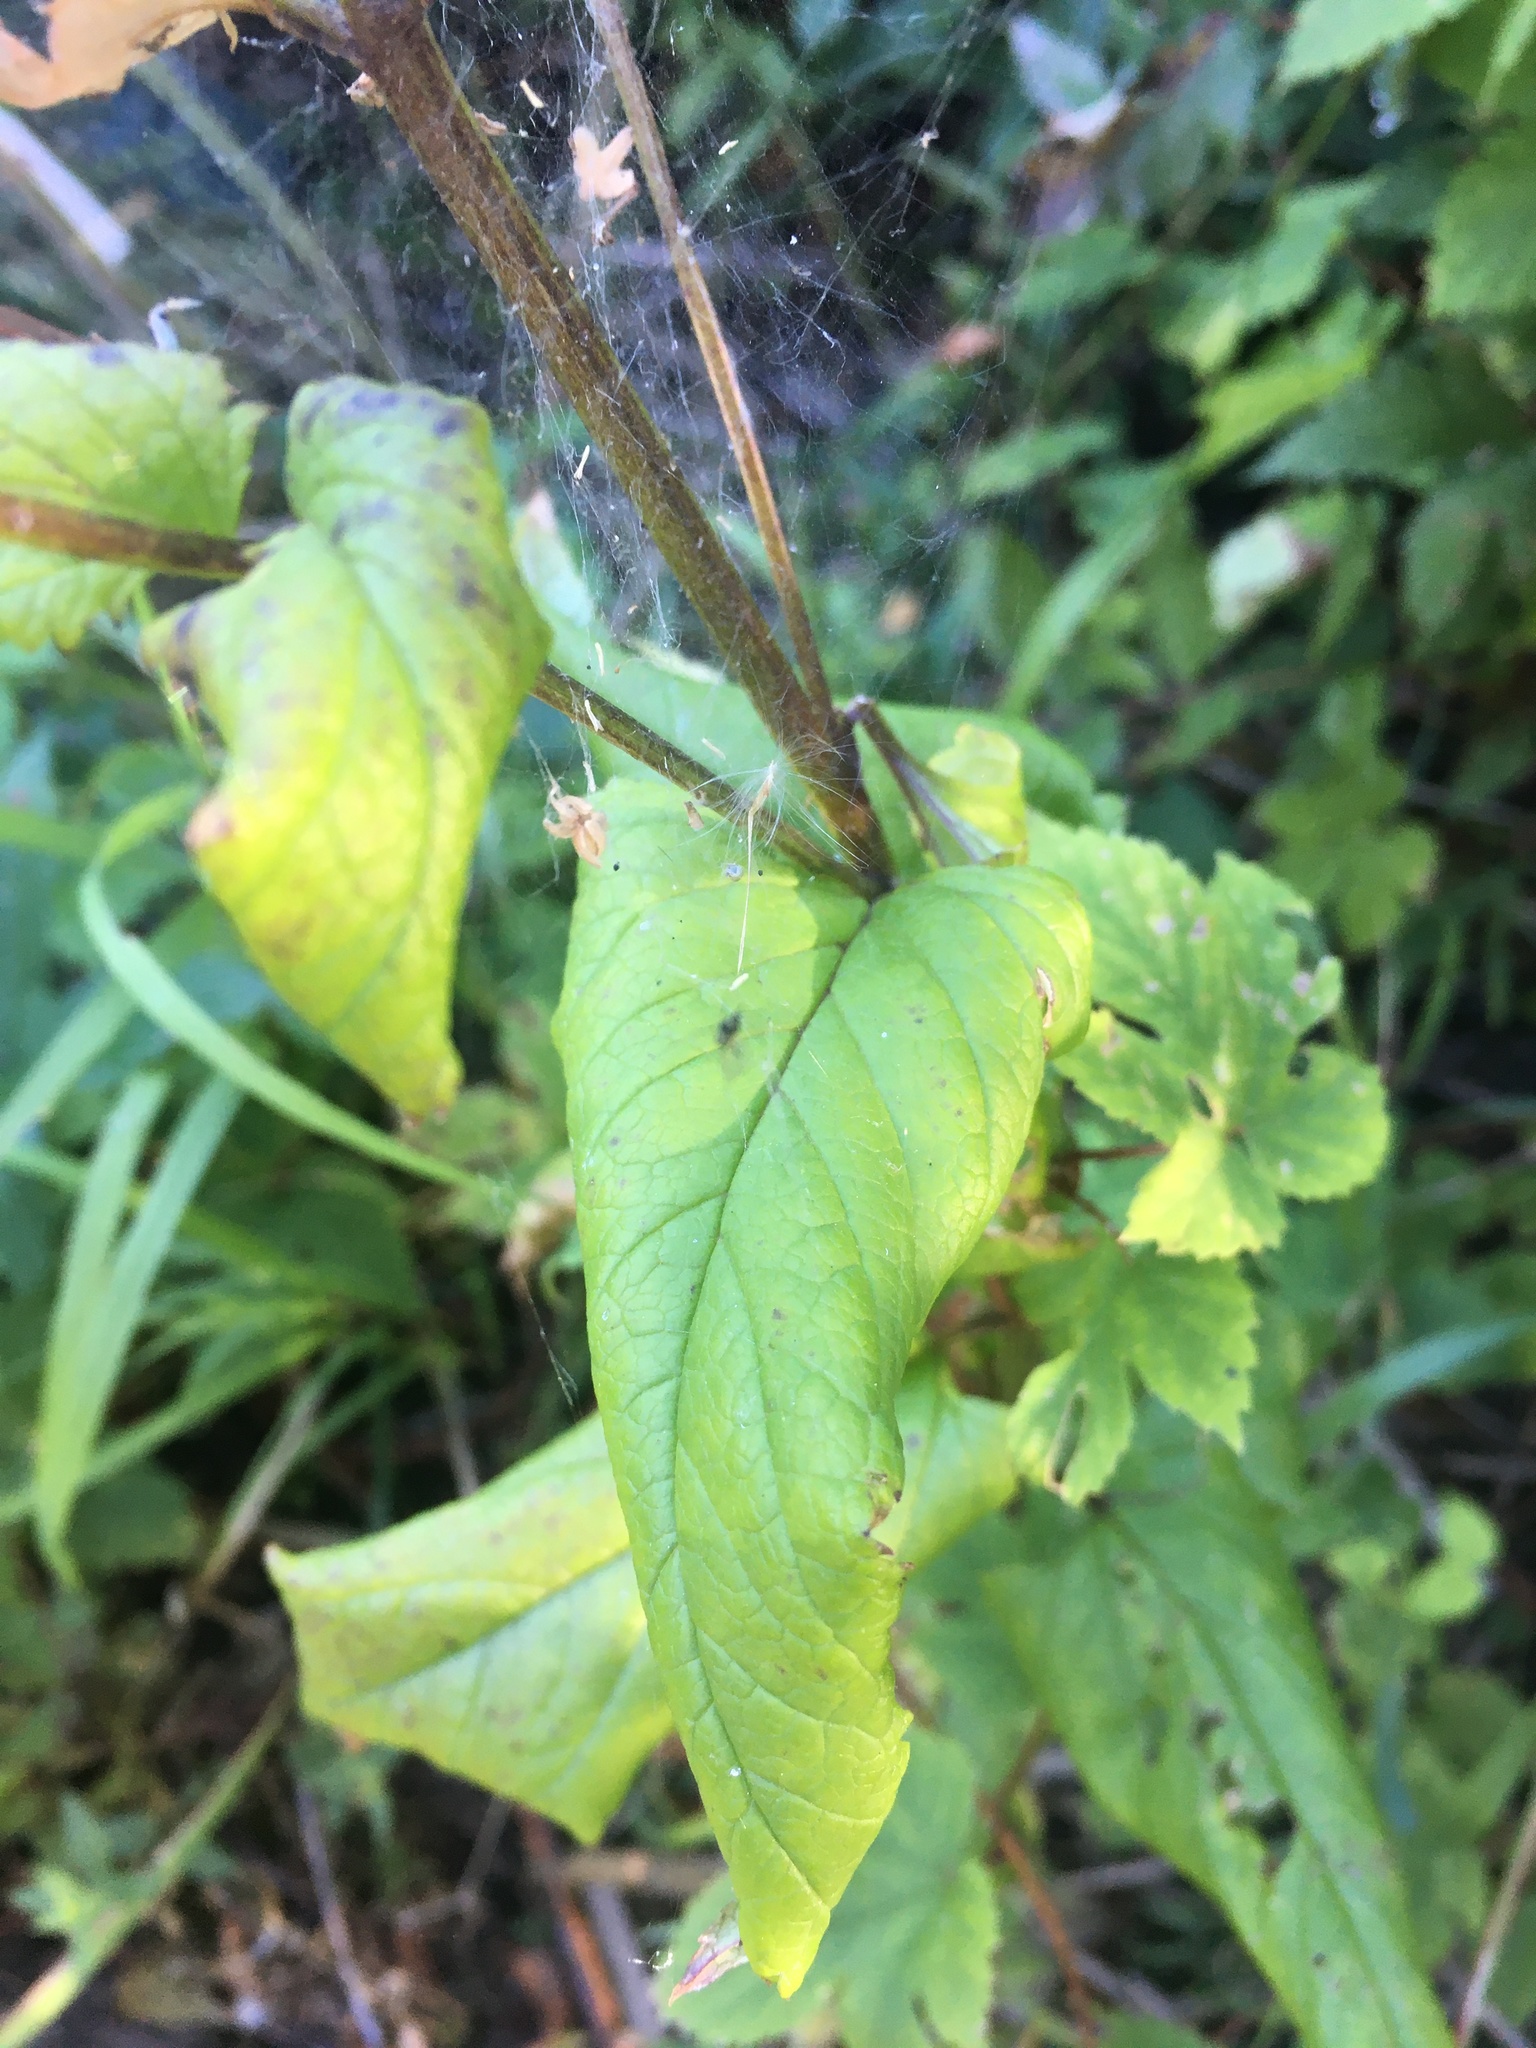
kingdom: Plantae
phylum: Tracheophyta
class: Magnoliopsida
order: Lamiales
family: Scrophulariaceae
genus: Scrophularia
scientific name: Scrophularia nodosa
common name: Common figwort
